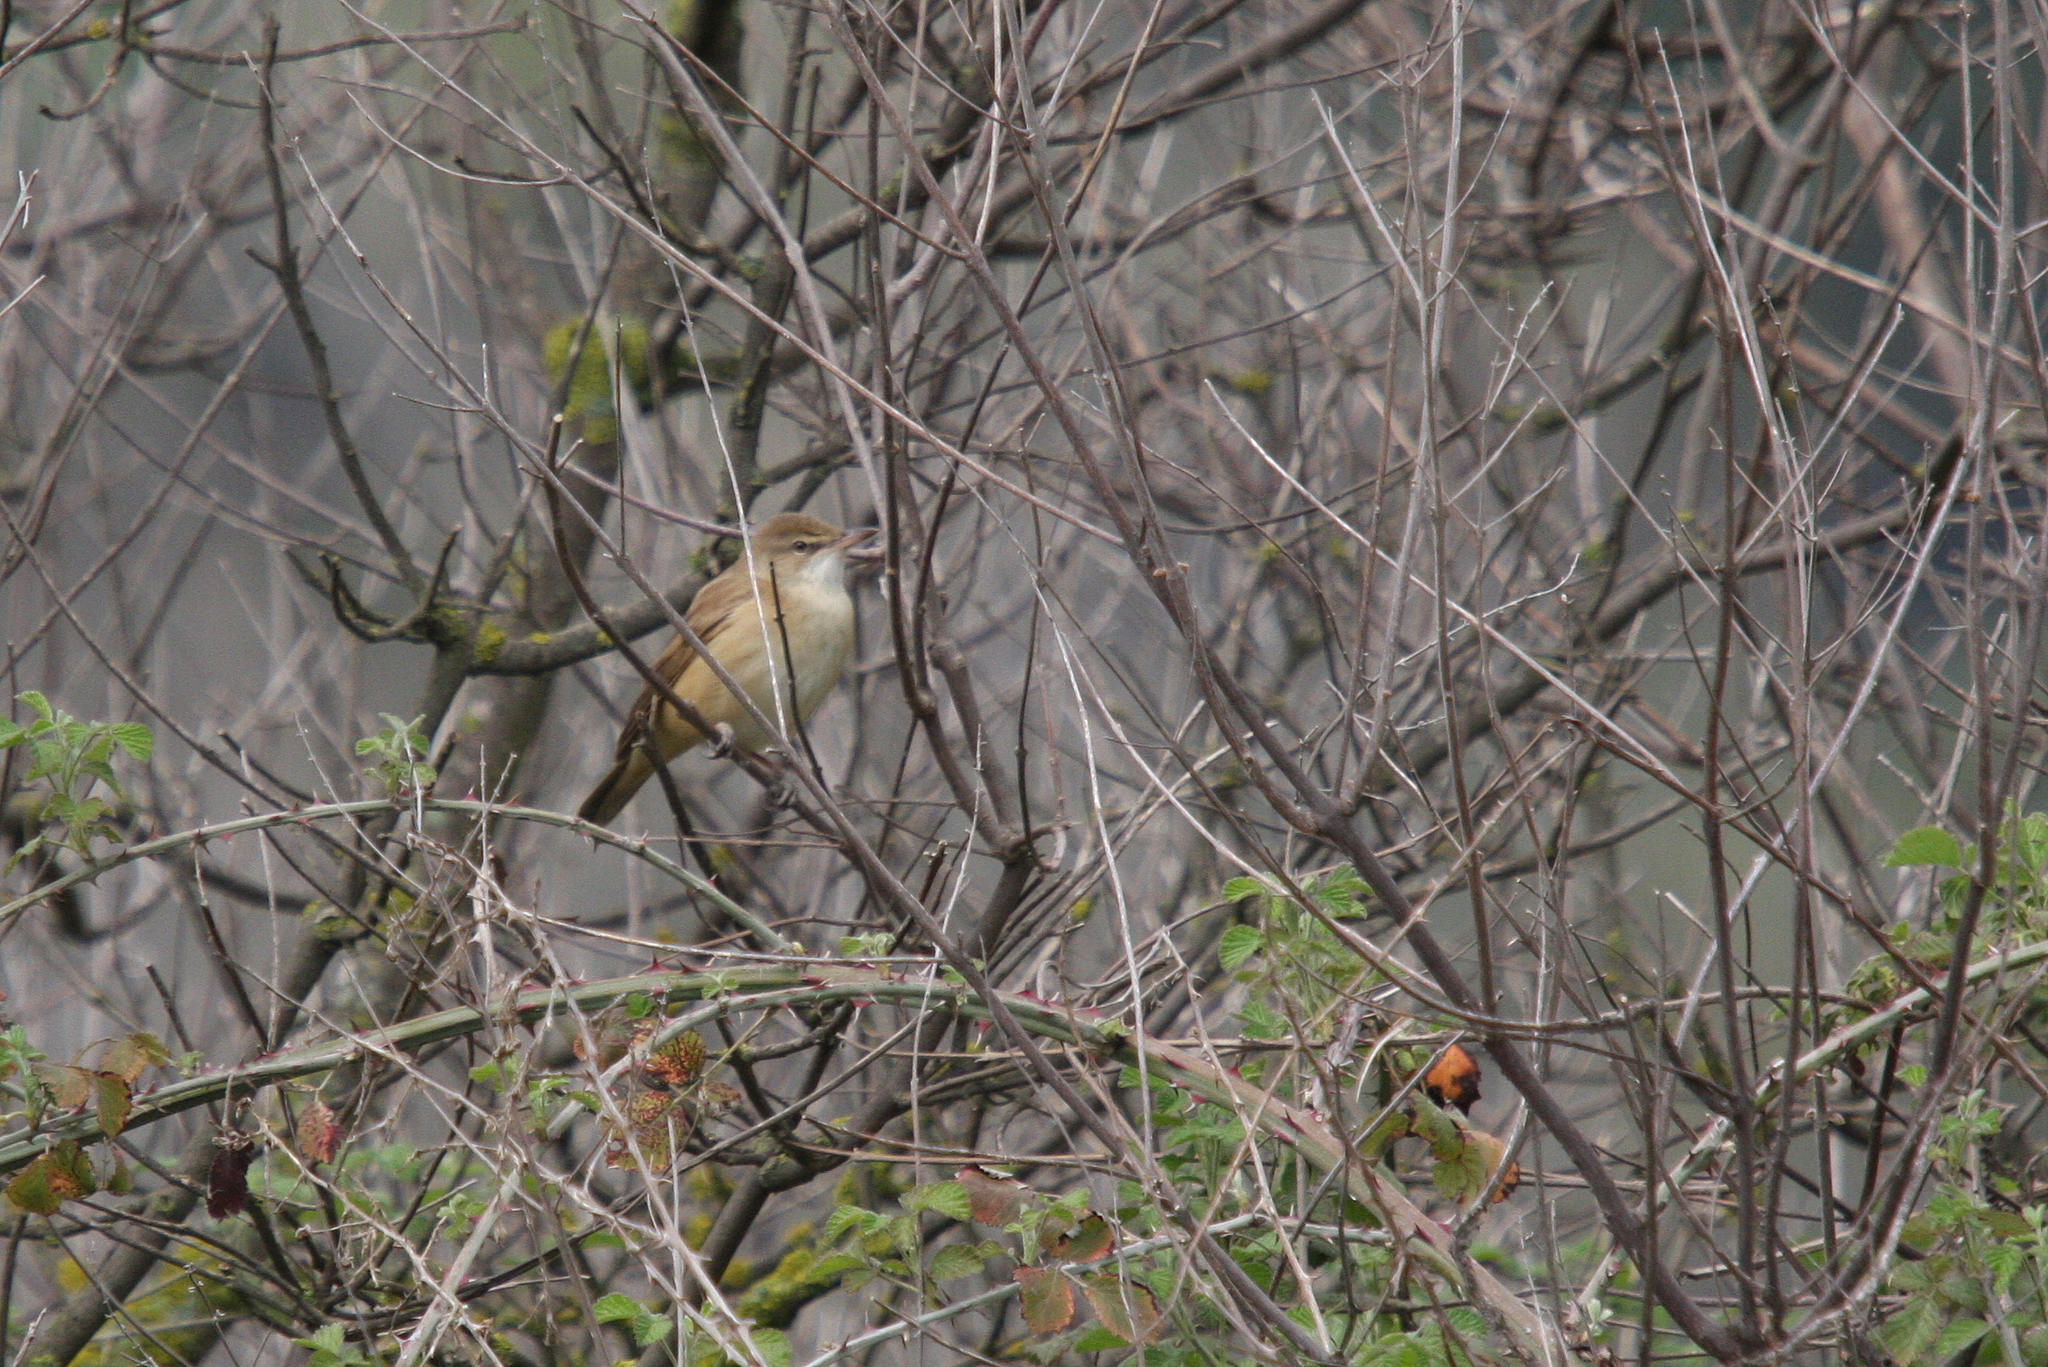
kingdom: Animalia
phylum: Chordata
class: Aves
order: Passeriformes
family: Acrocephalidae
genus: Acrocephalus
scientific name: Acrocephalus arundinaceus
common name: Great reed warbler
